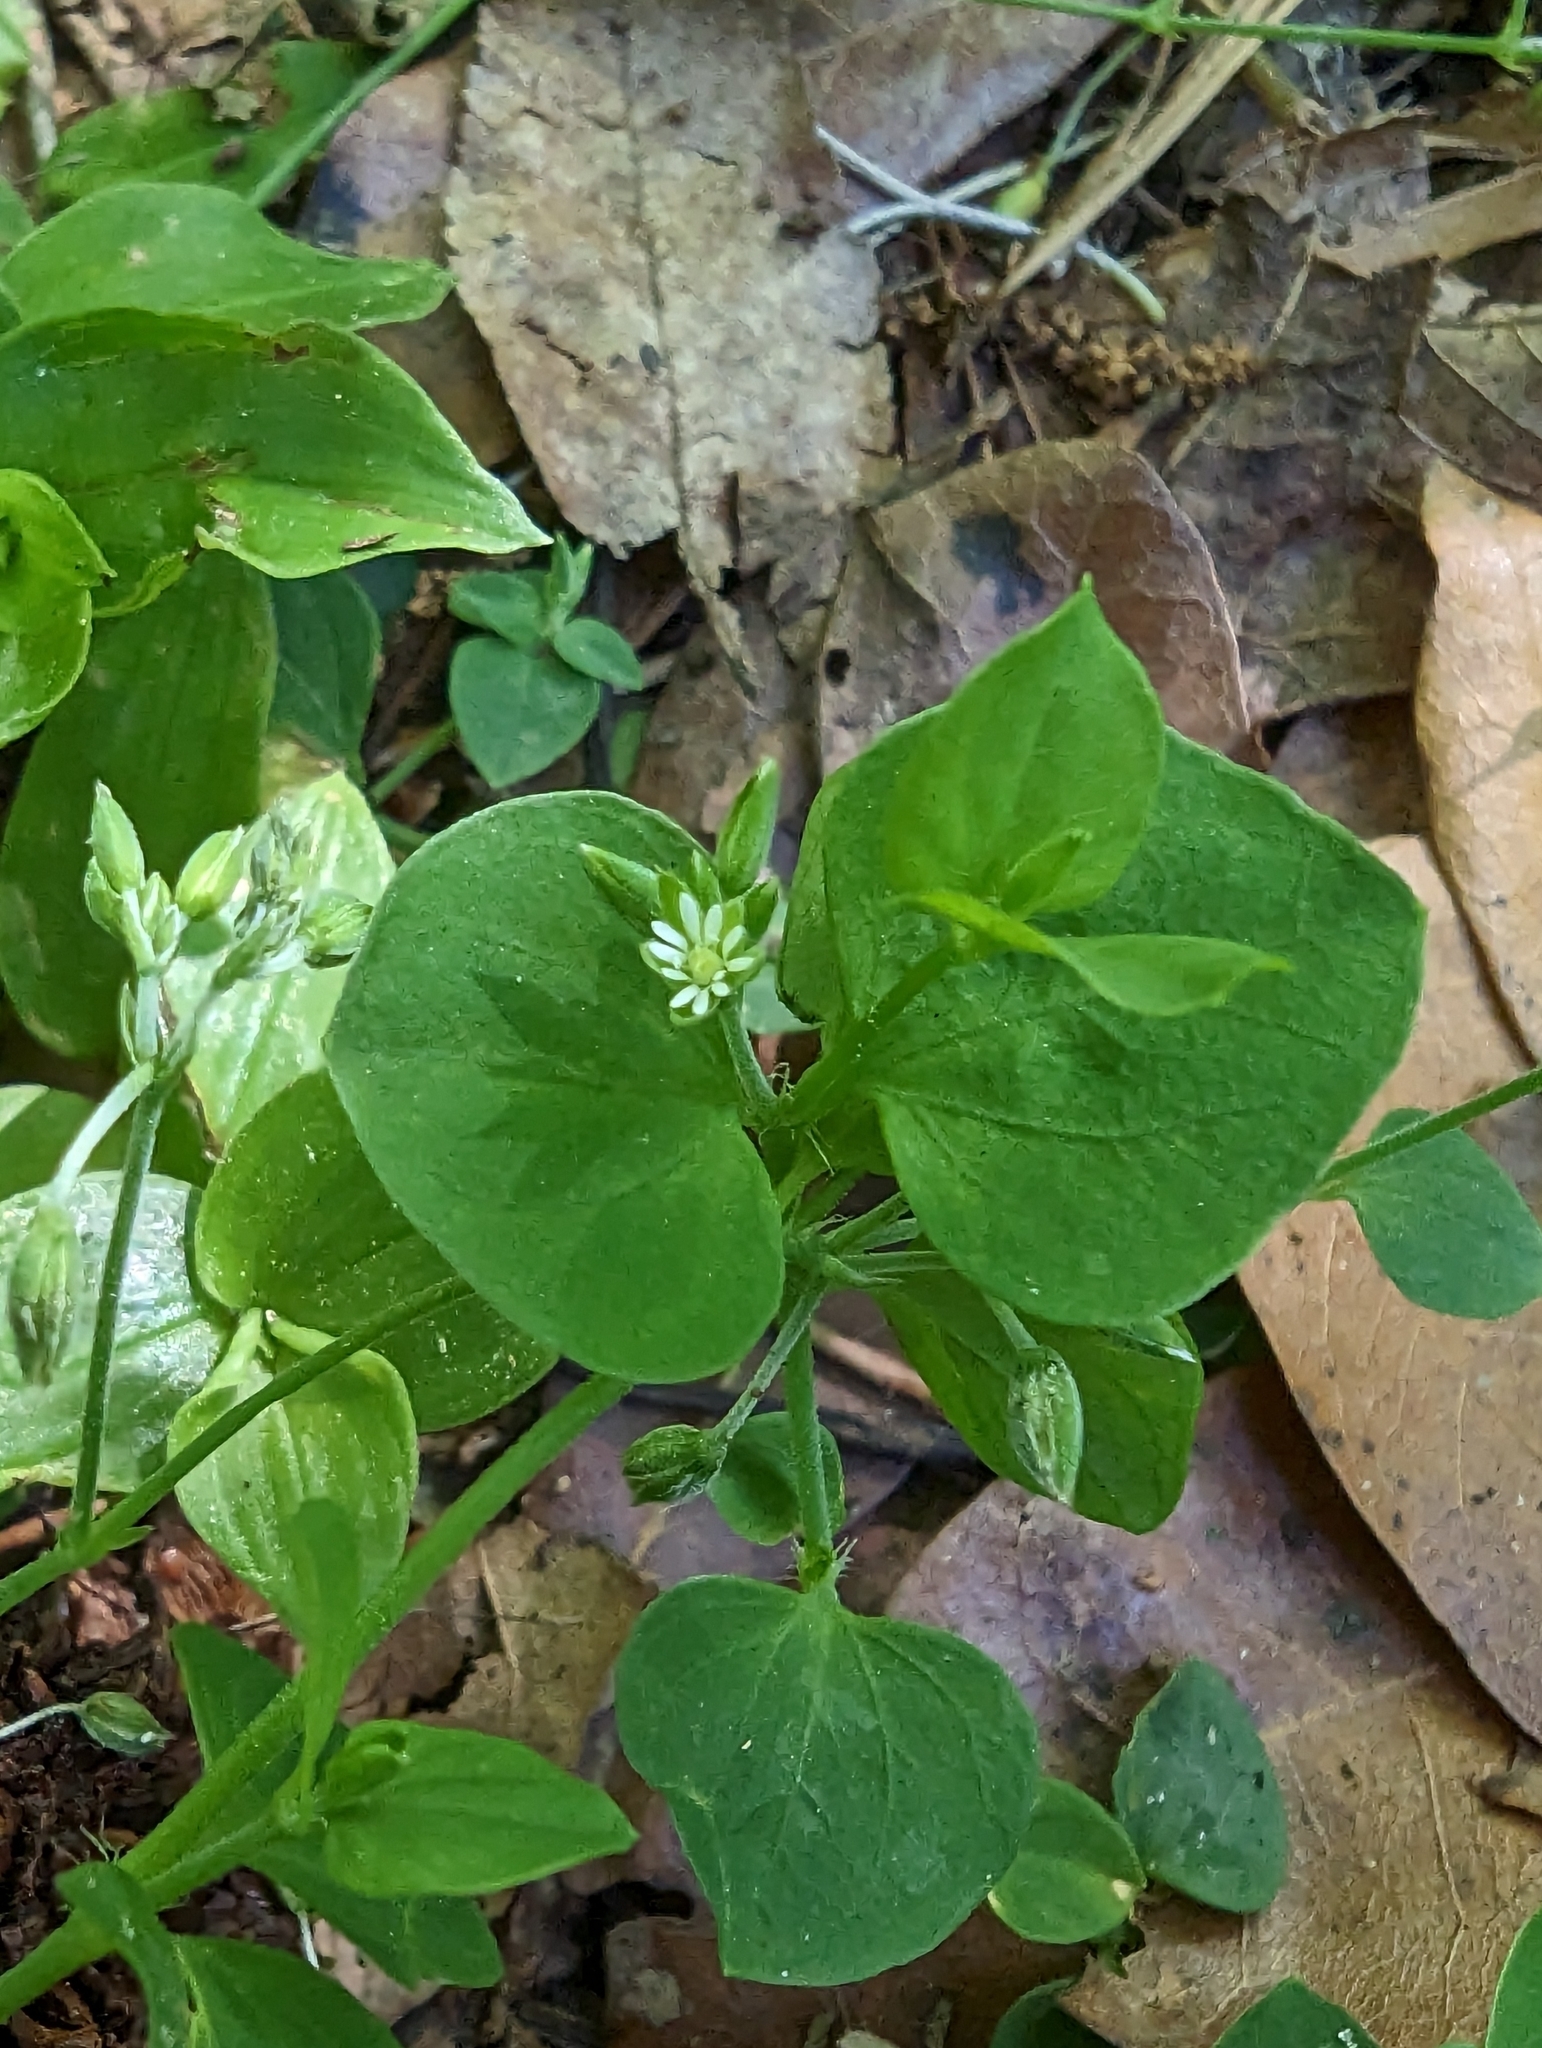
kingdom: Plantae
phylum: Tracheophyta
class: Magnoliopsida
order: Caryophyllales
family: Caryophyllaceae
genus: Drymaria
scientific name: Drymaria cordata
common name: Whitesnow
